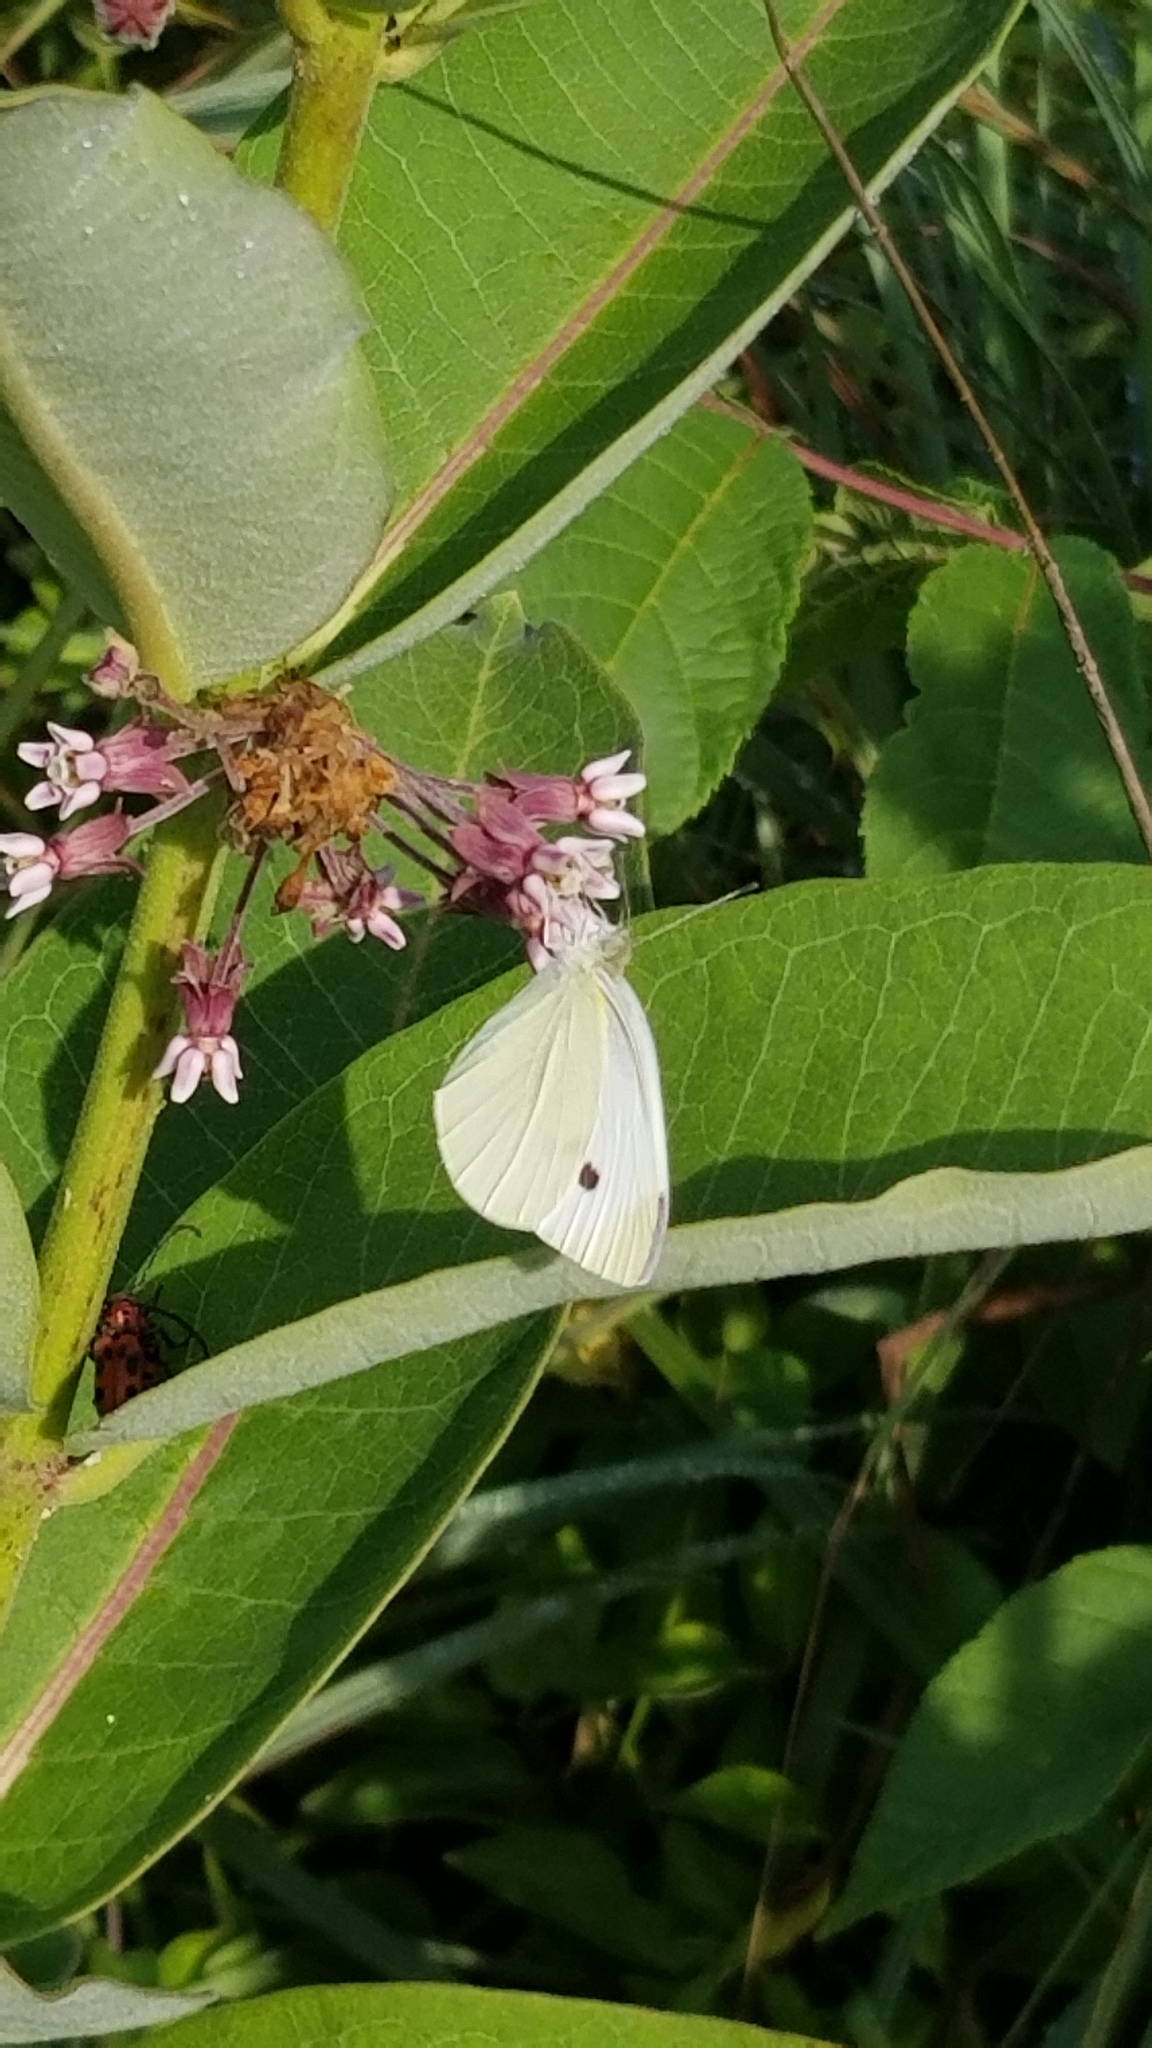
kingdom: Animalia
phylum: Arthropoda
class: Insecta
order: Lepidoptera
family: Pieridae
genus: Pieris
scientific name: Pieris rapae
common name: Small white
